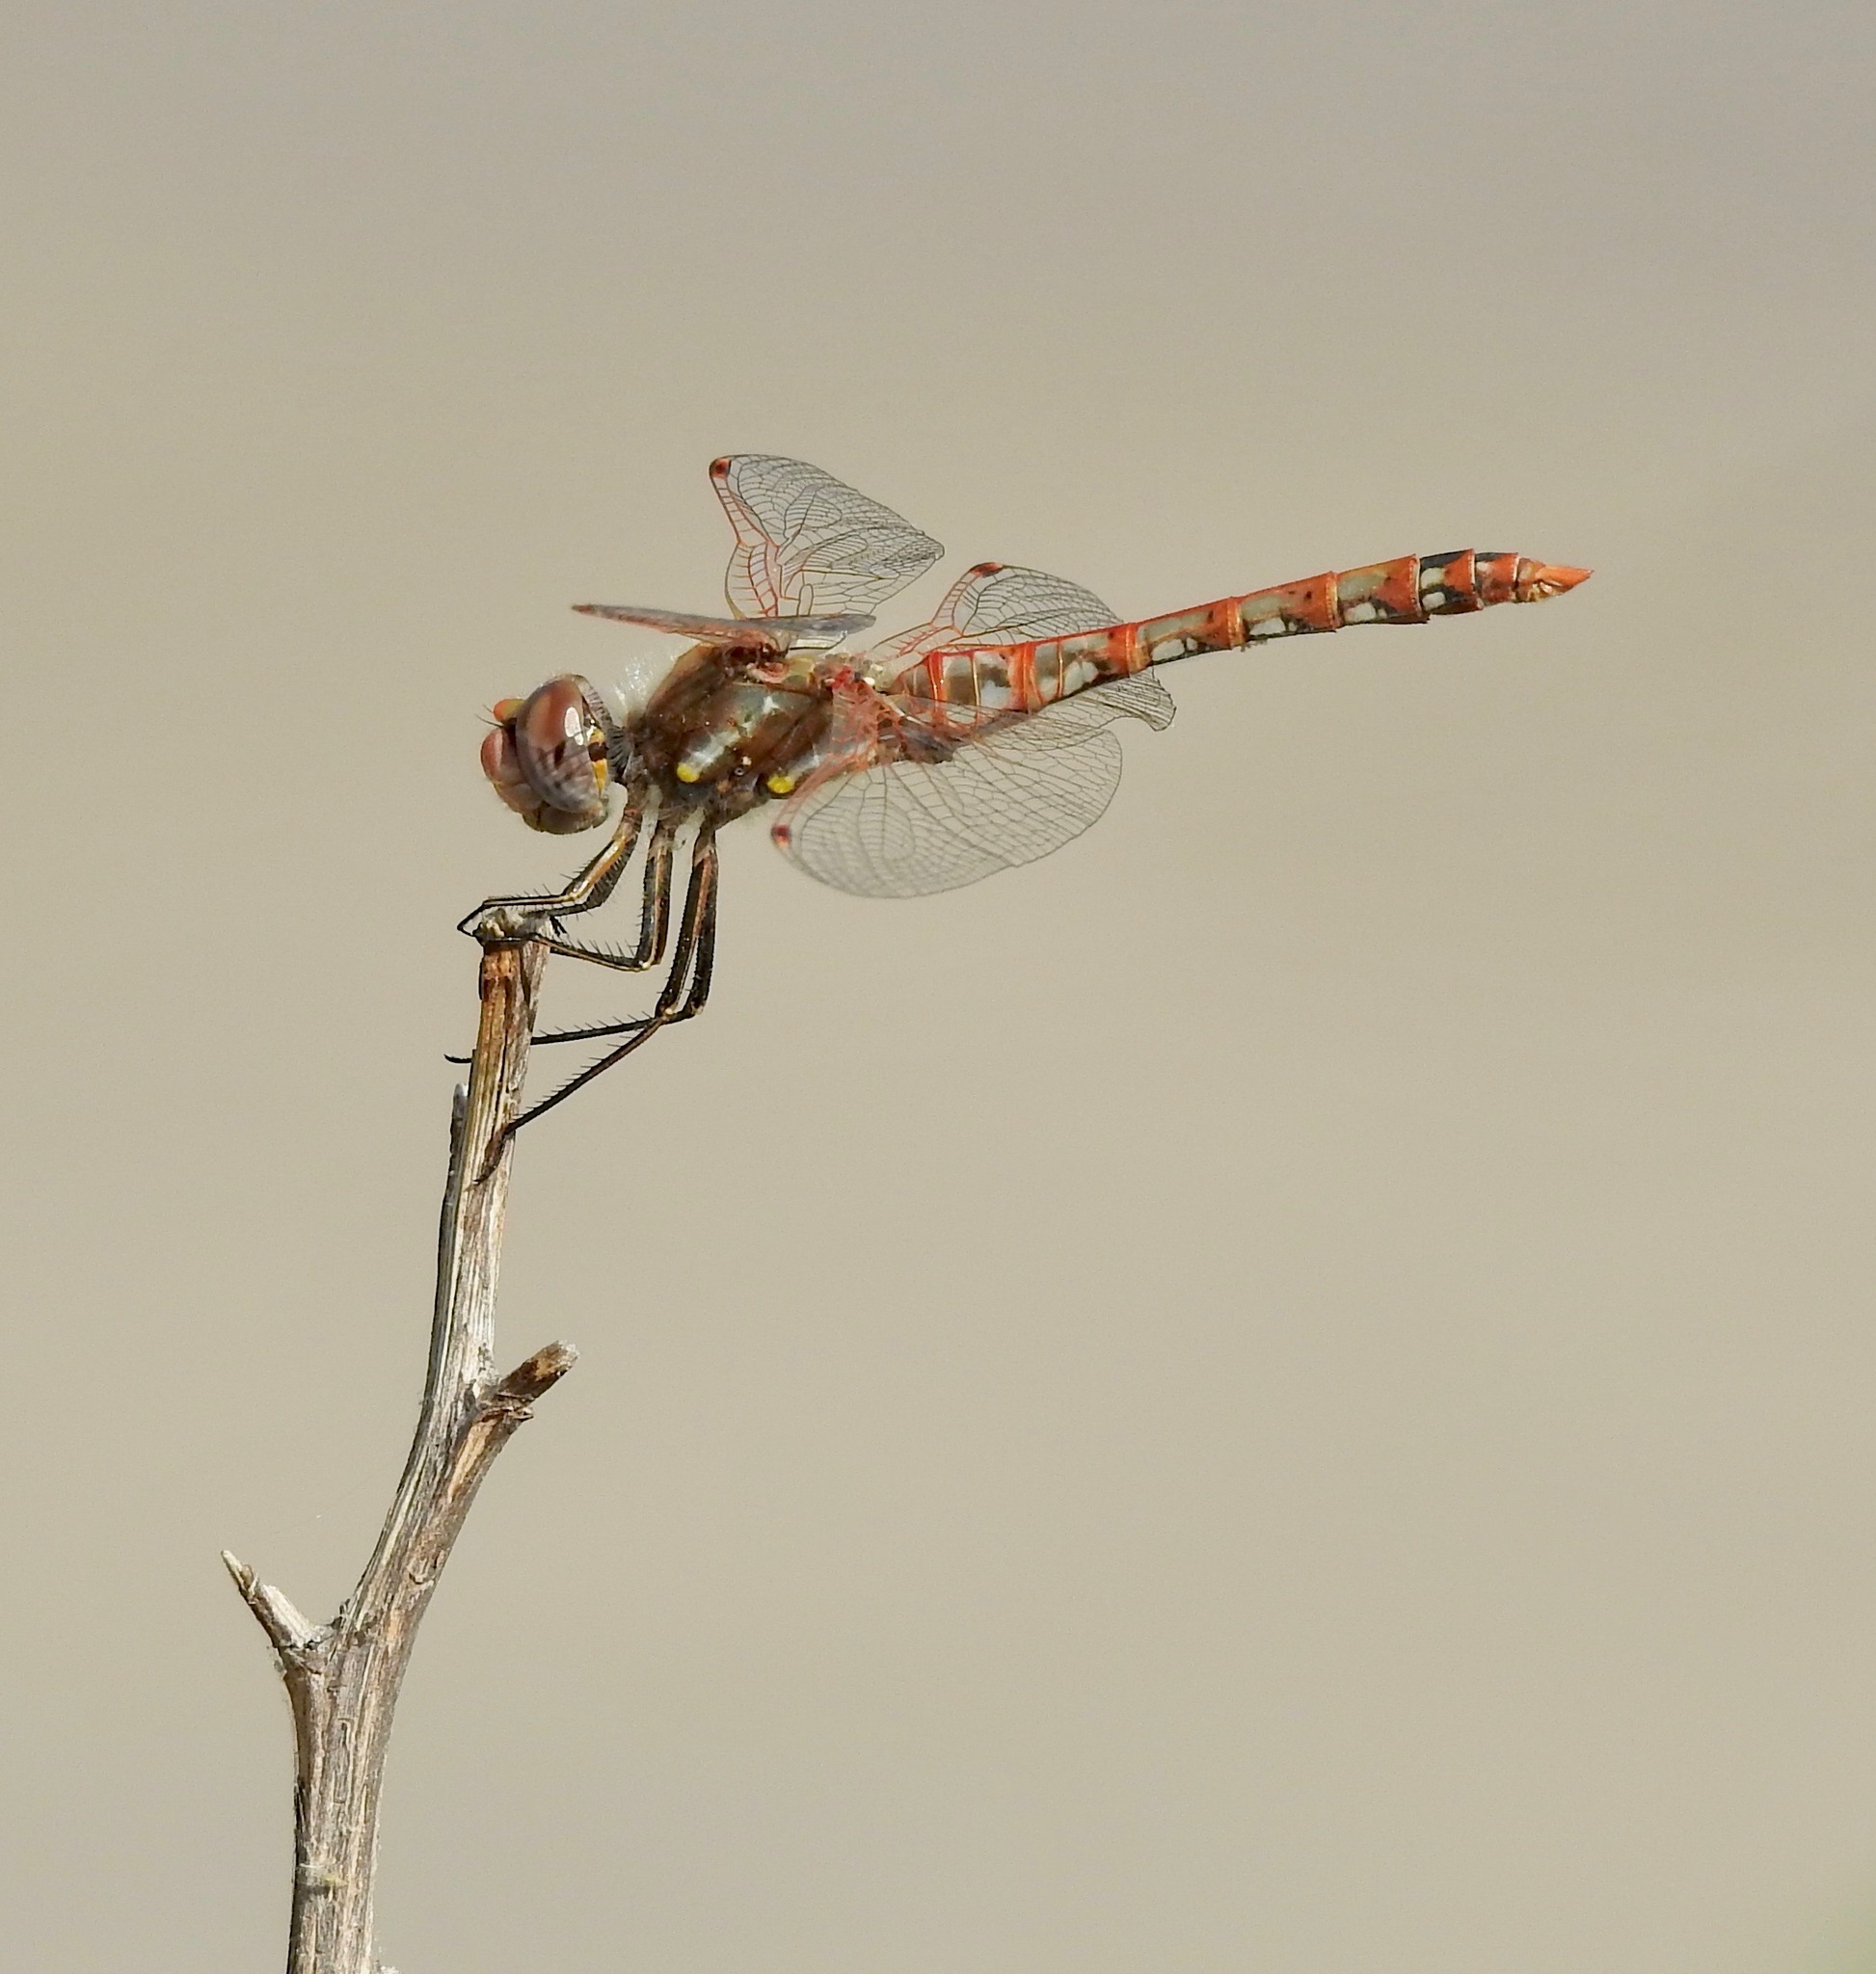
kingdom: Animalia
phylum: Arthropoda
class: Insecta
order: Odonata
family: Libellulidae
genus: Sympetrum
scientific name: Sympetrum corruptum
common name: Variegated meadowhawk
